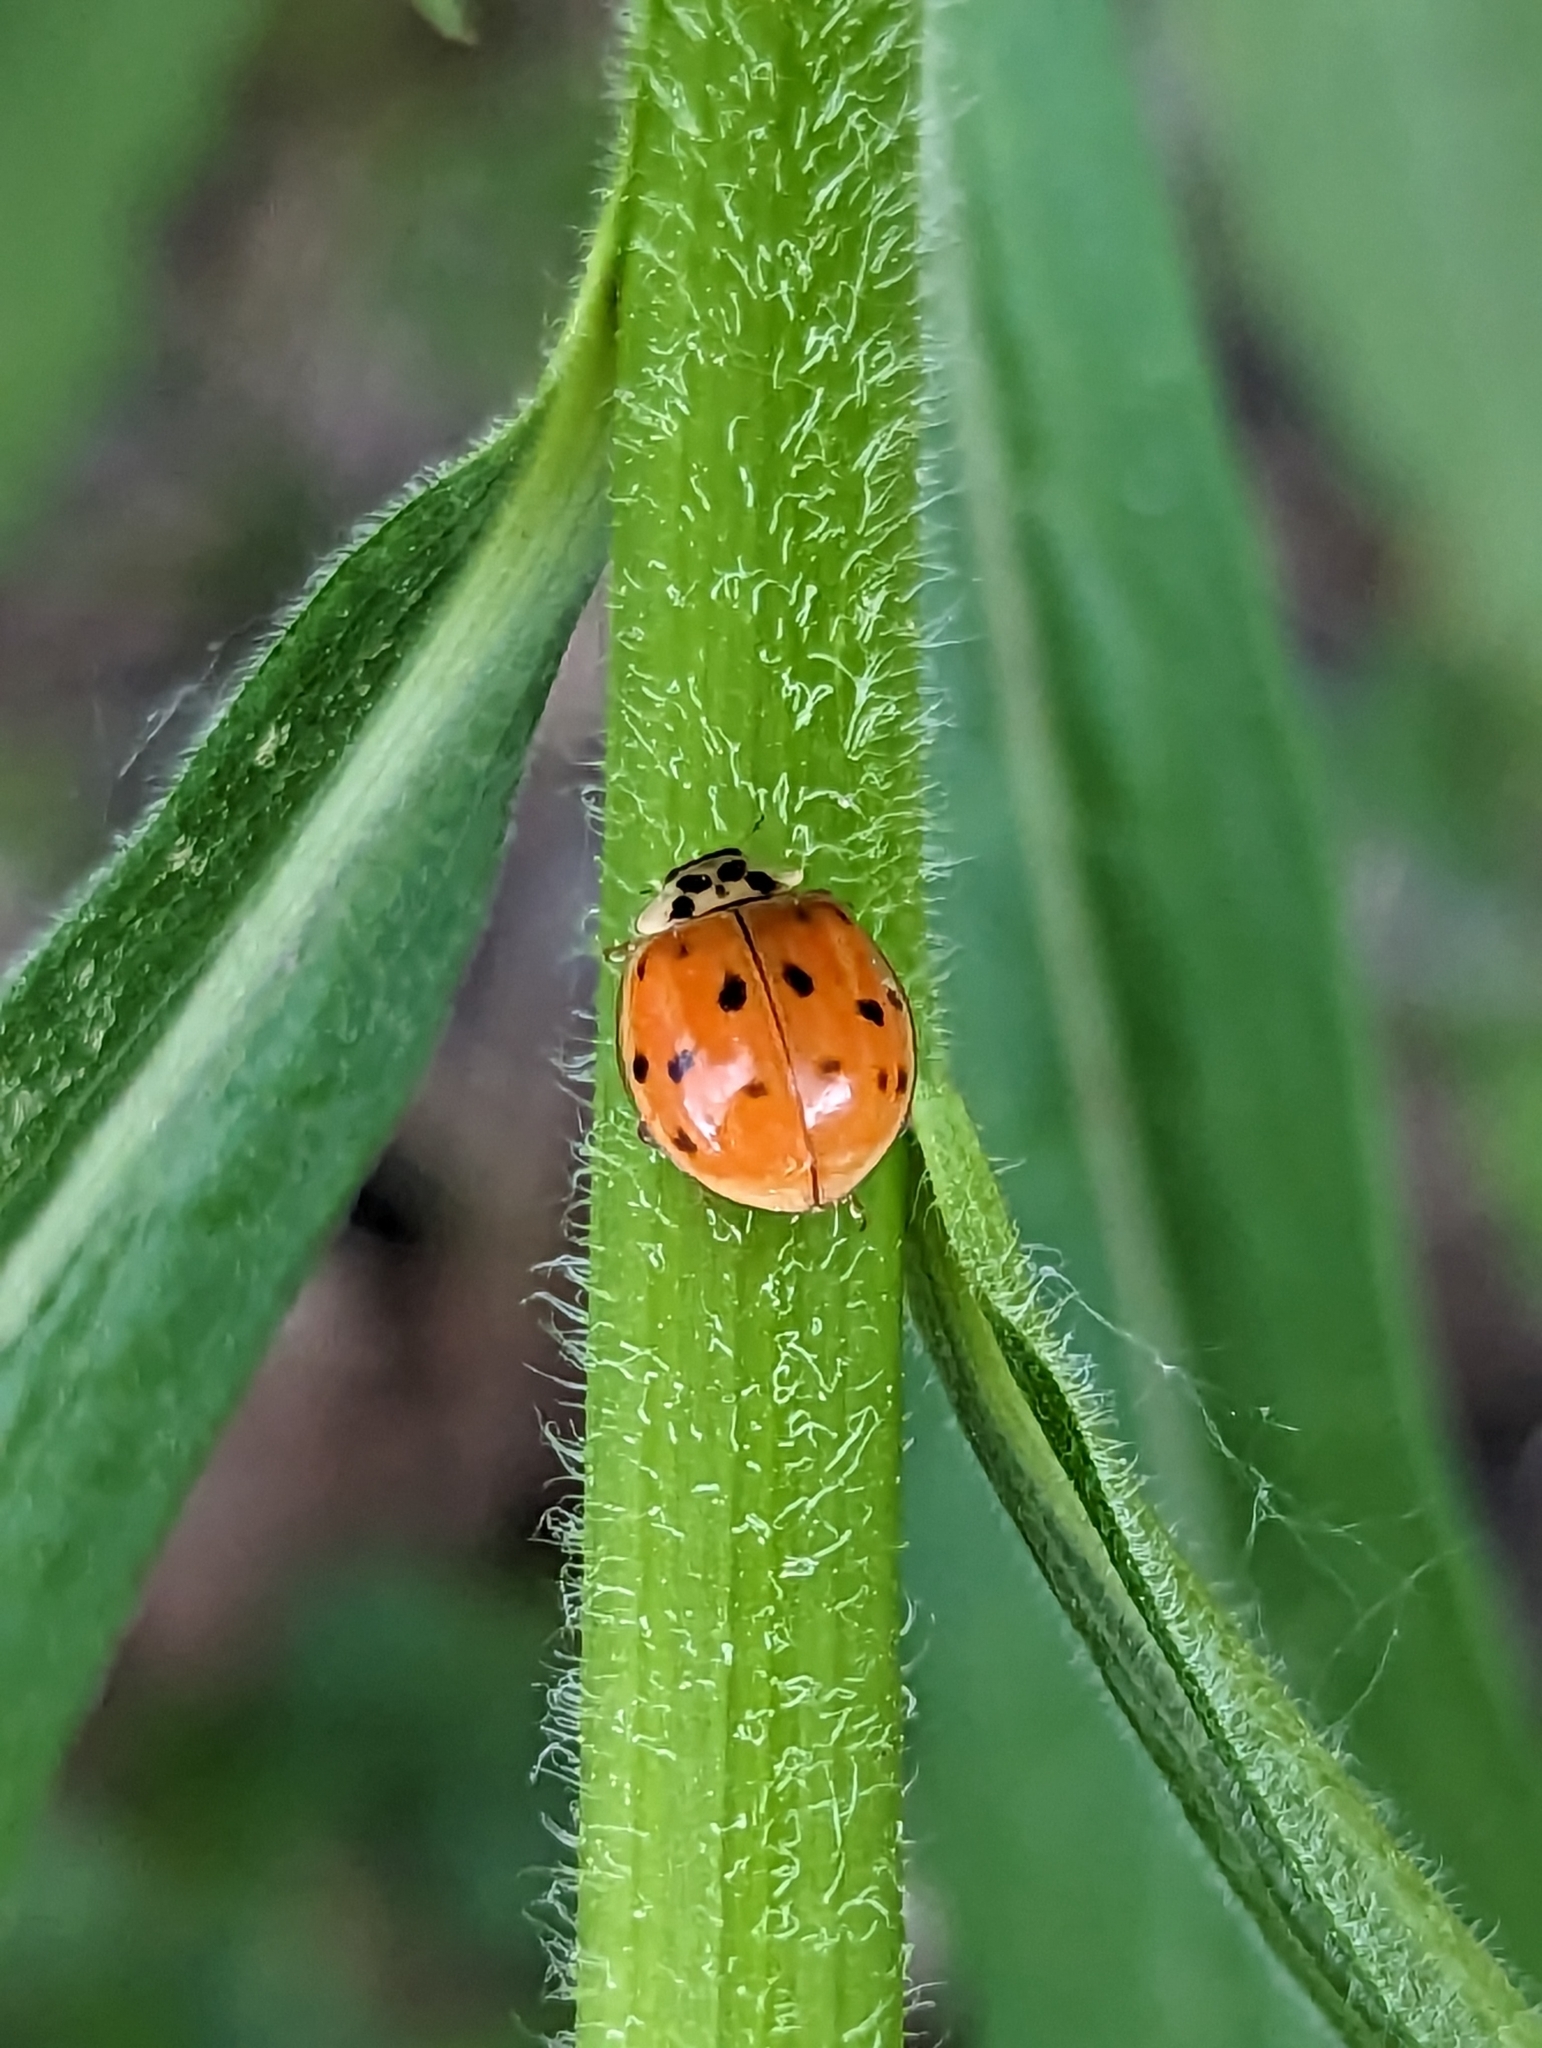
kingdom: Animalia
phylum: Arthropoda
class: Insecta
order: Coleoptera
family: Coccinellidae
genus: Harmonia
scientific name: Harmonia axyridis
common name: Harlequin ladybird
